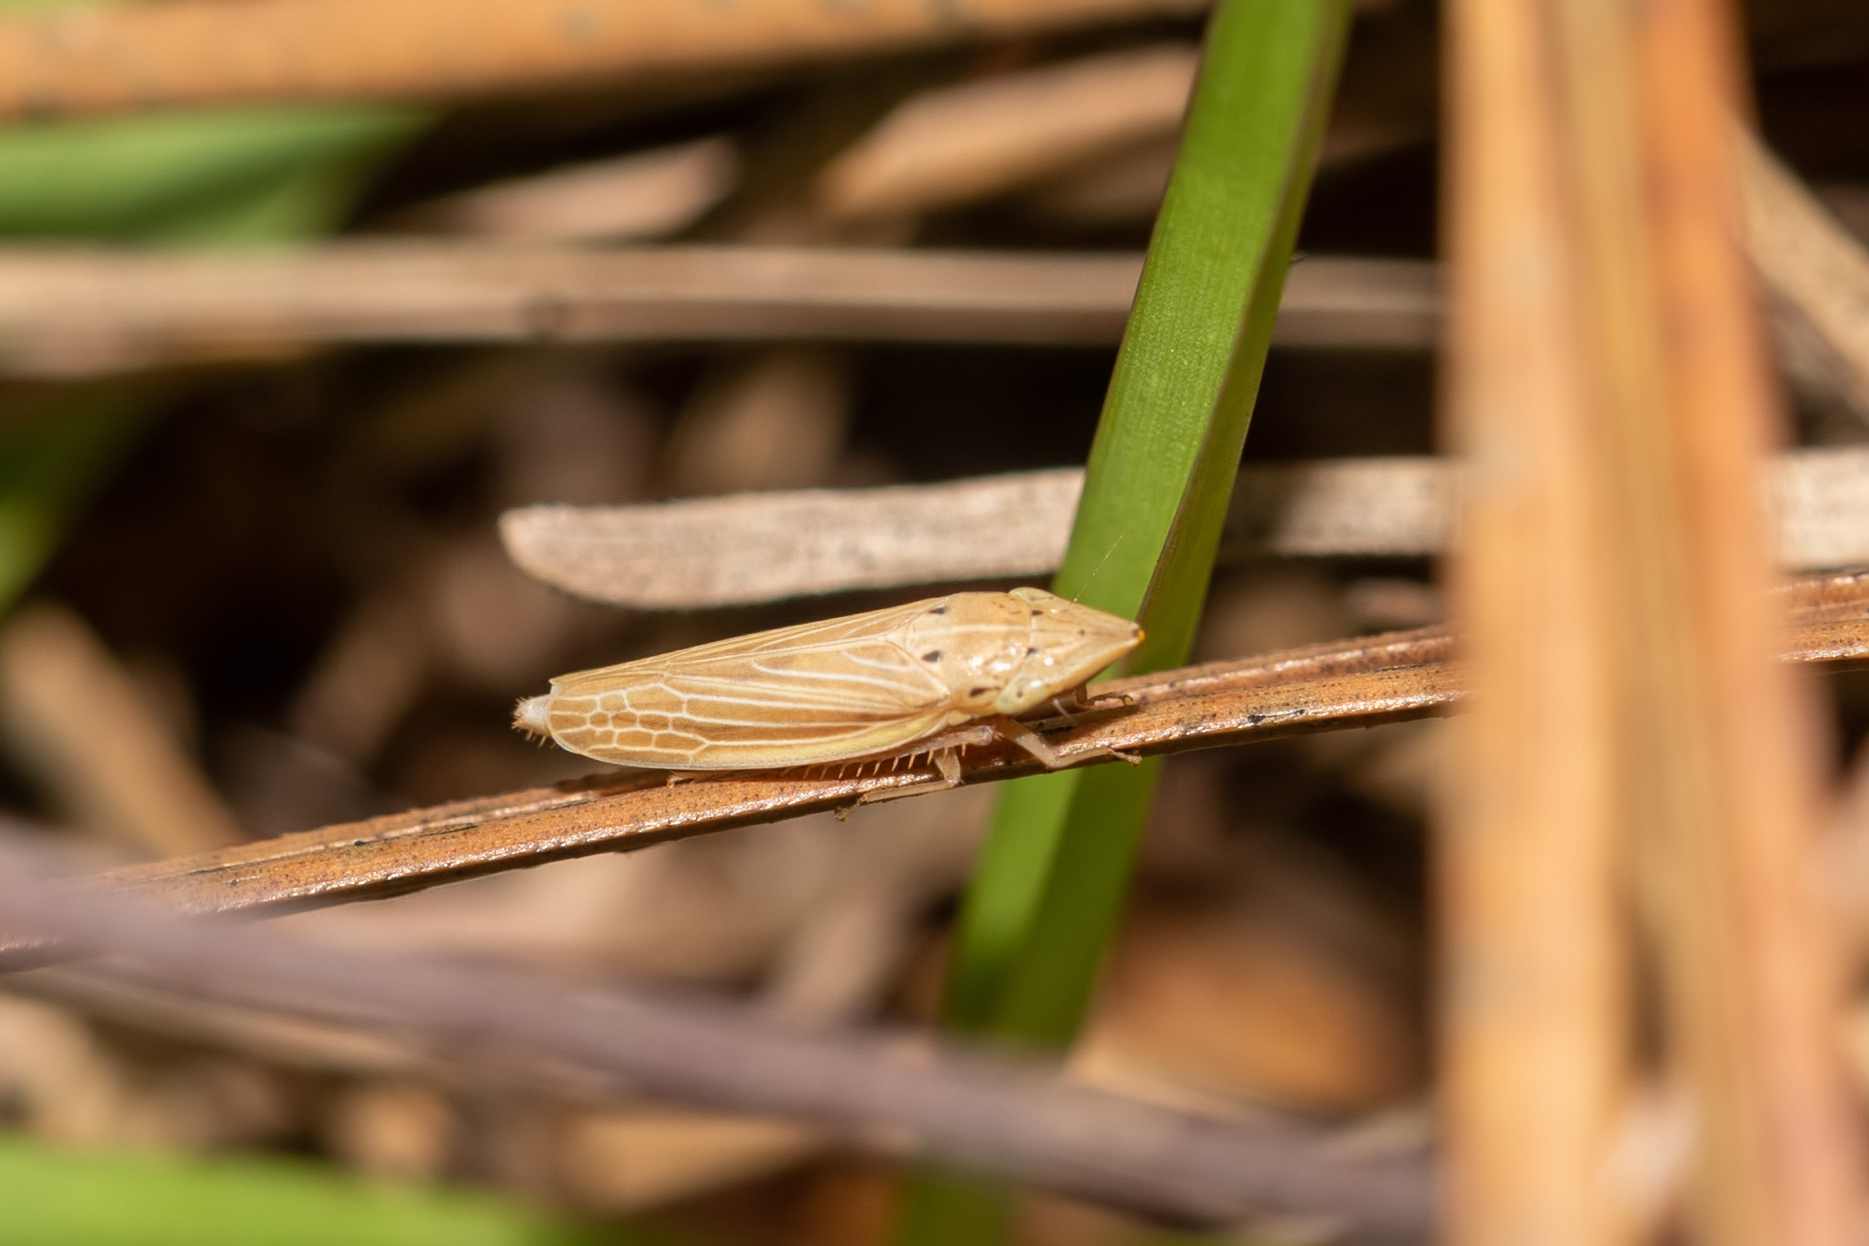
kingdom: Animalia
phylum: Arthropoda
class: Insecta
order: Hemiptera
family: Cicadellidae
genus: Draeculacephala
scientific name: Draeculacephala septemguttata
